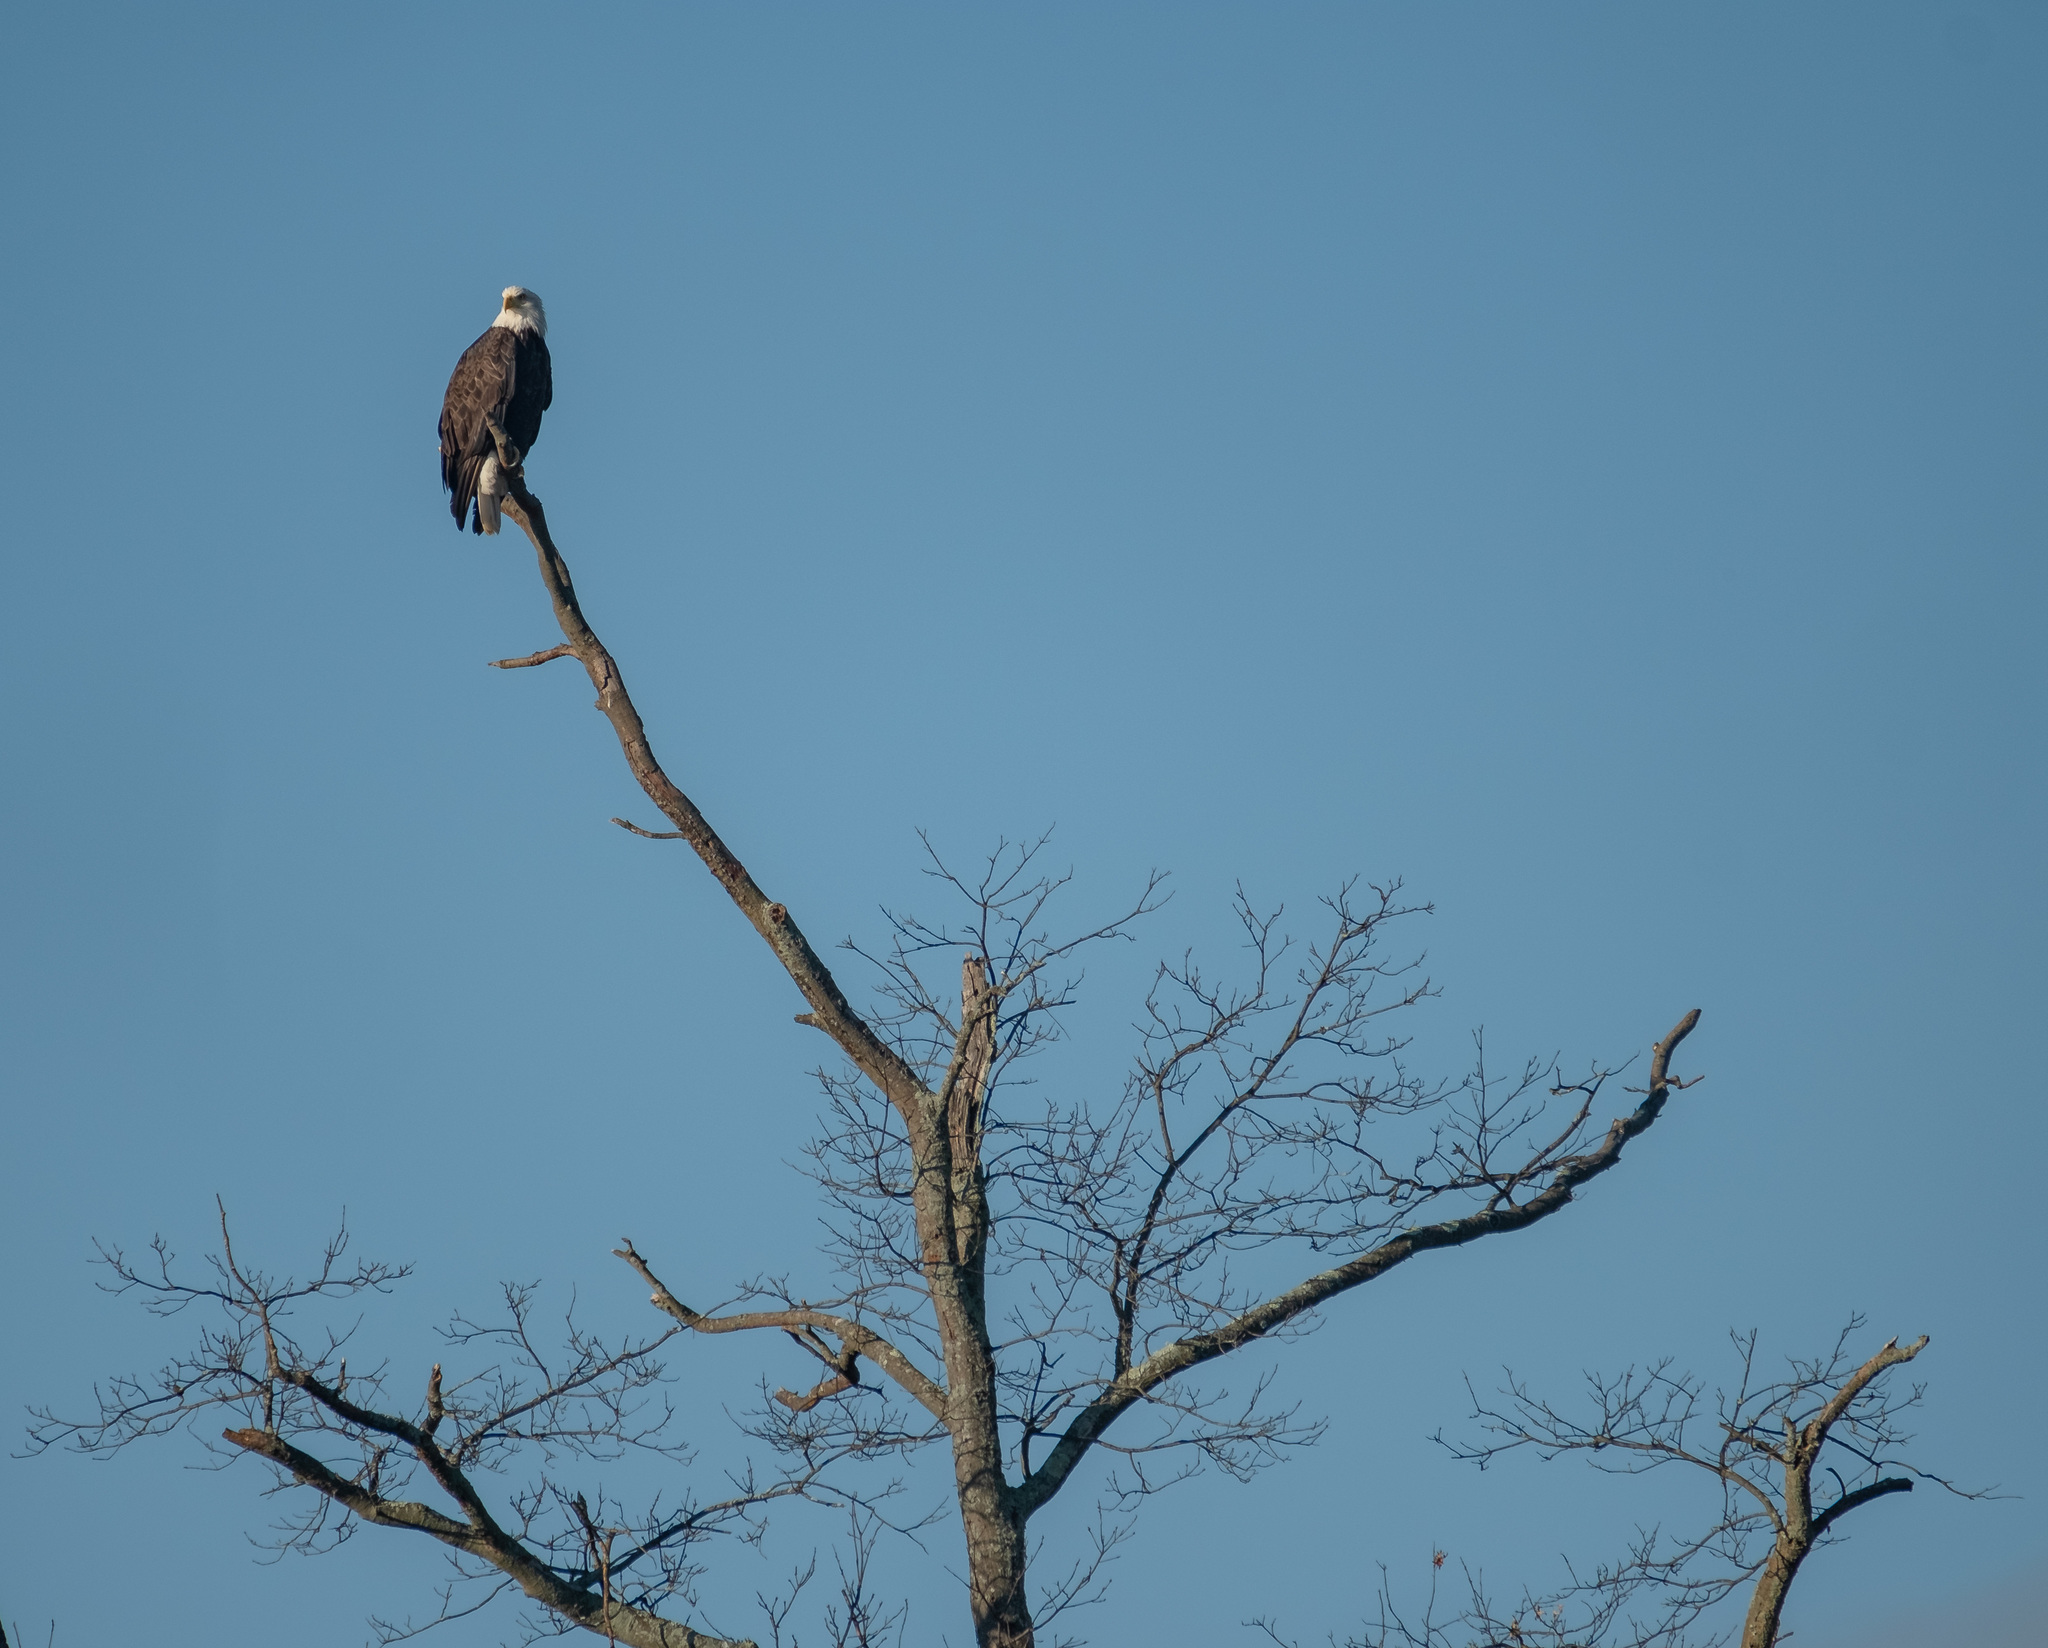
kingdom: Animalia
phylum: Chordata
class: Aves
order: Accipitriformes
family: Accipitridae
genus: Haliaeetus
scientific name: Haliaeetus leucocephalus
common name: Bald eagle
